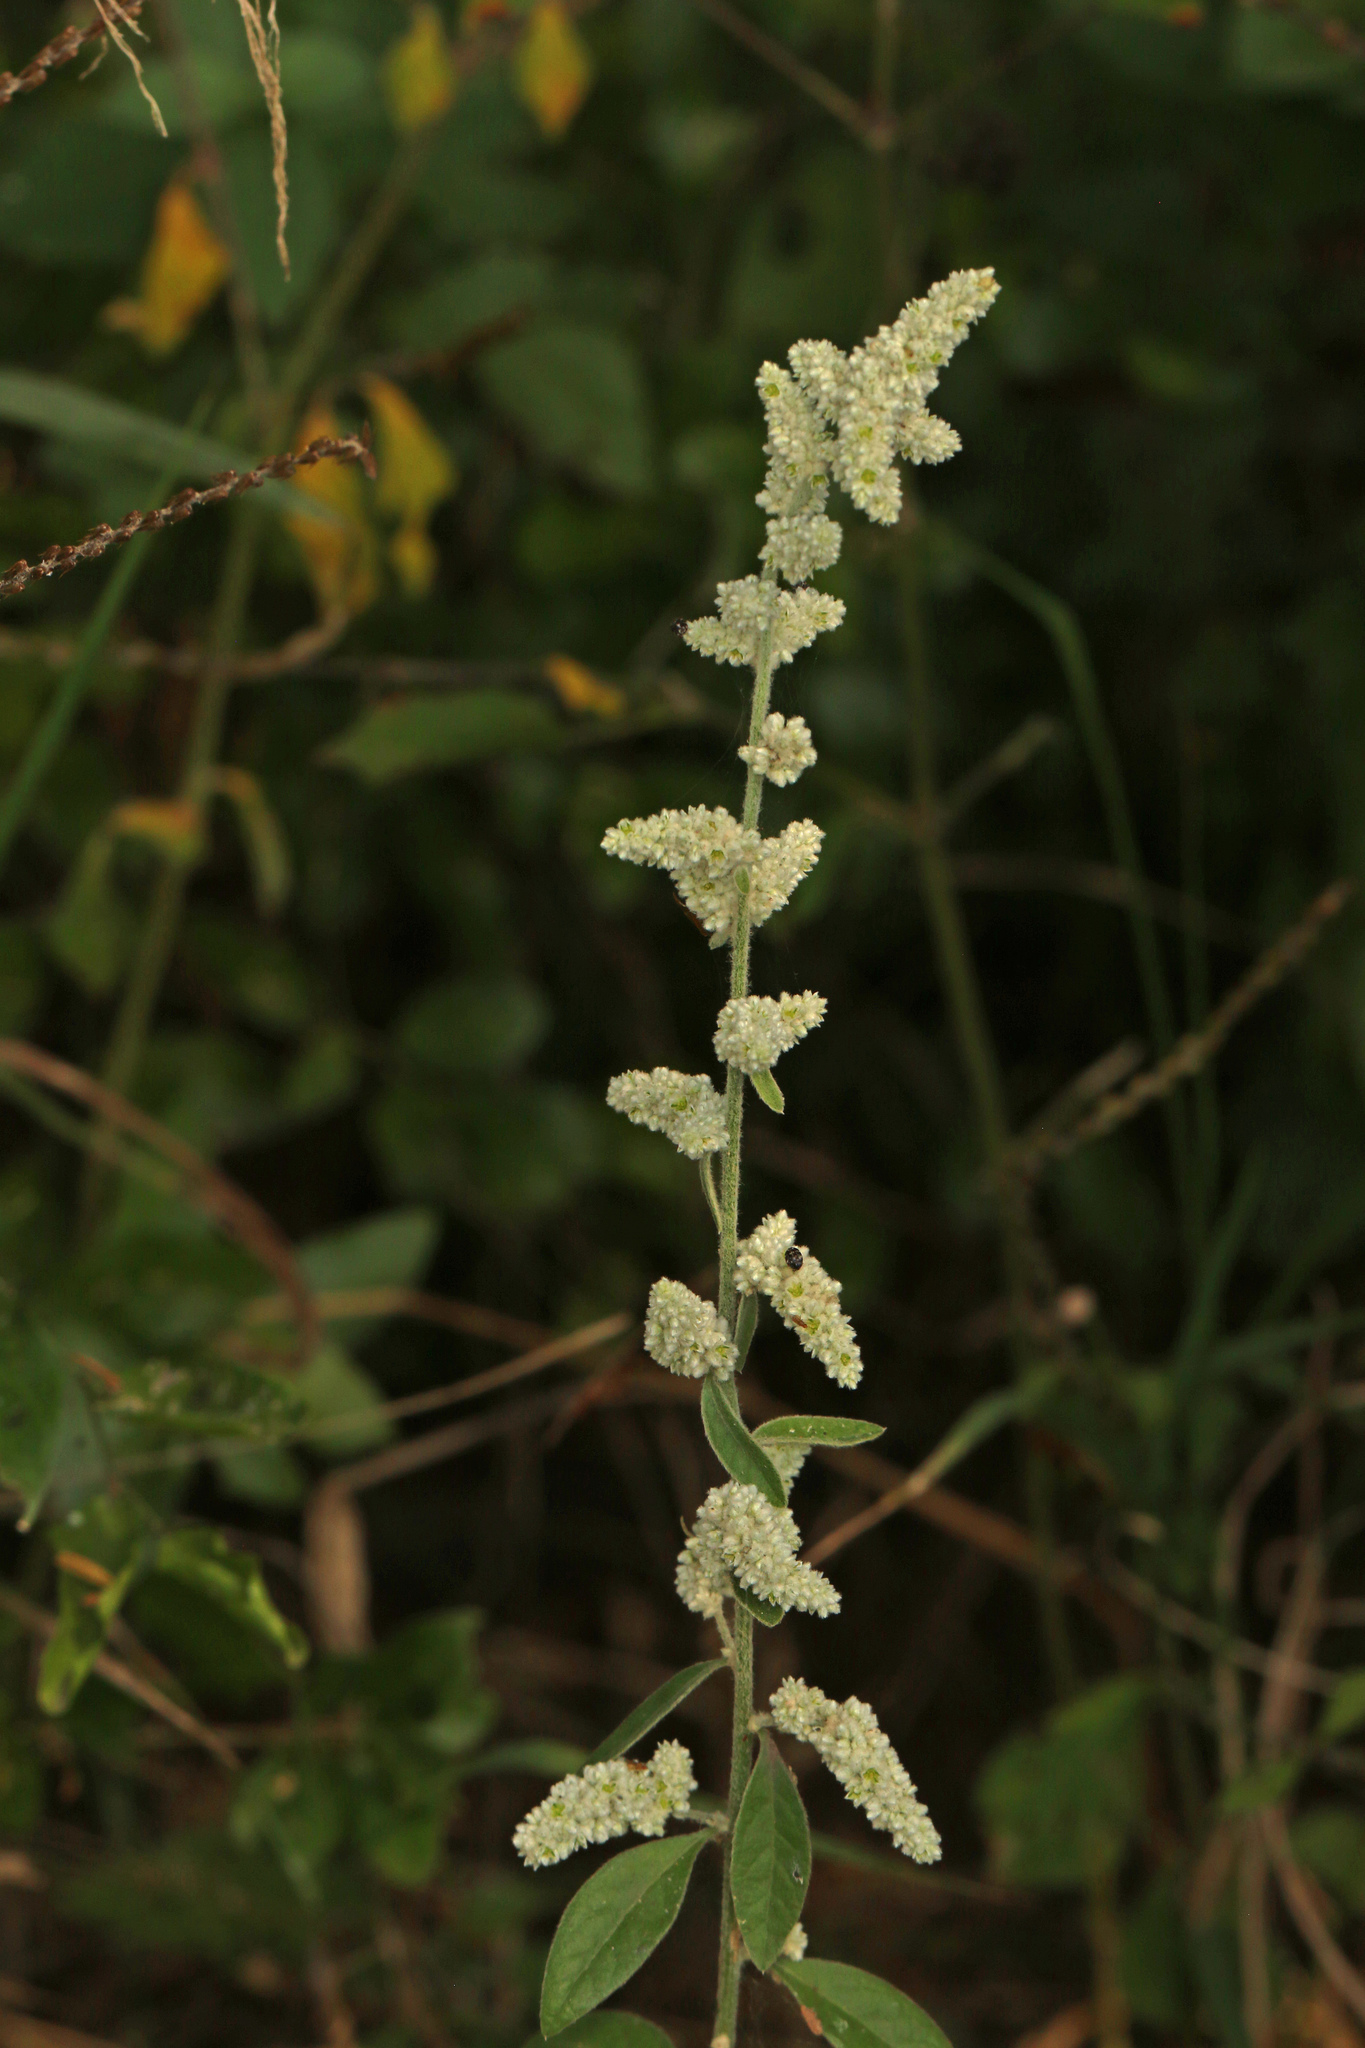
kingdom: Plantae
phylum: Tracheophyta
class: Magnoliopsida
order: Caryophyllales
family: Amaranthaceae
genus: Ouret
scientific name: Ouret leucura
